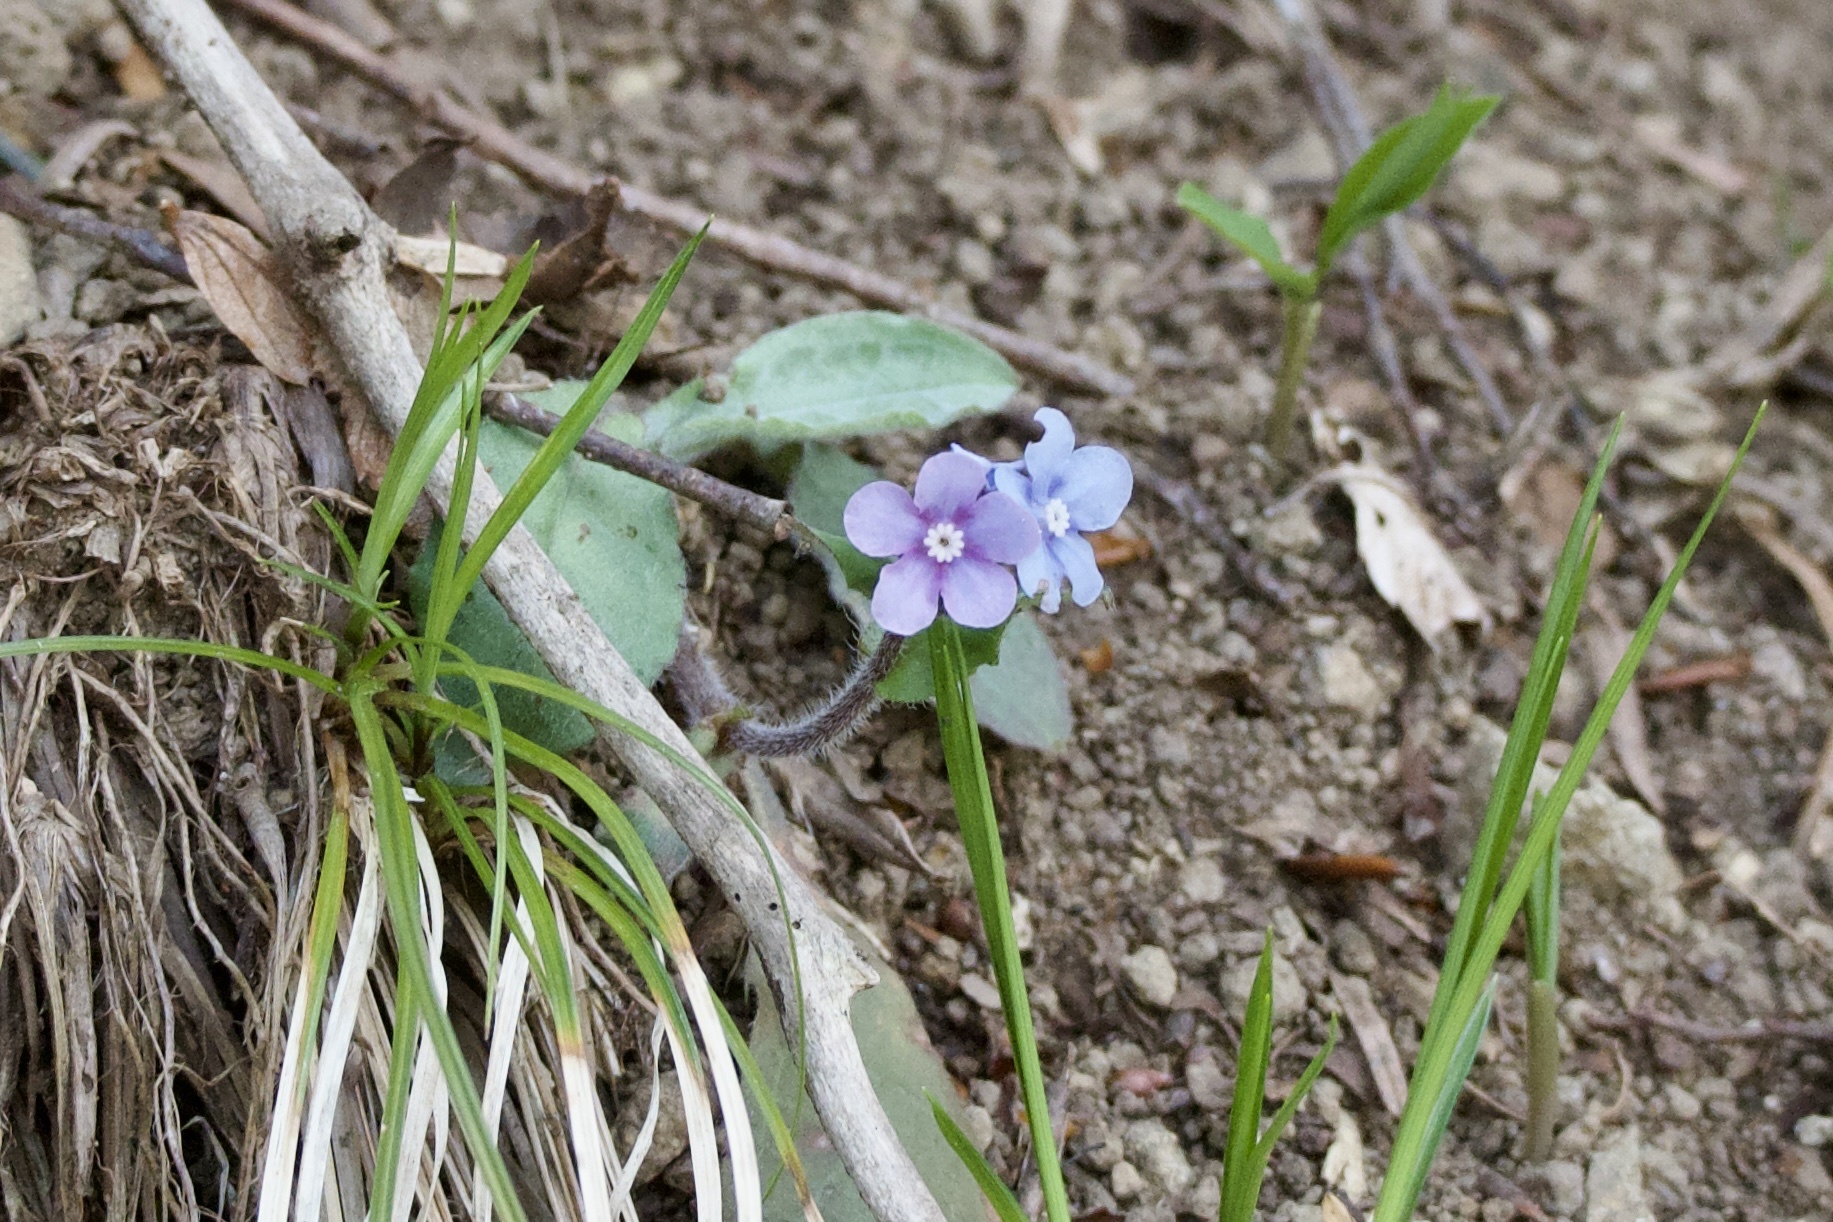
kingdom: Plantae
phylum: Tracheophyta
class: Magnoliopsida
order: Boraginales
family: Boraginaceae
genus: Nihon
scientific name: Nihon japonicum
